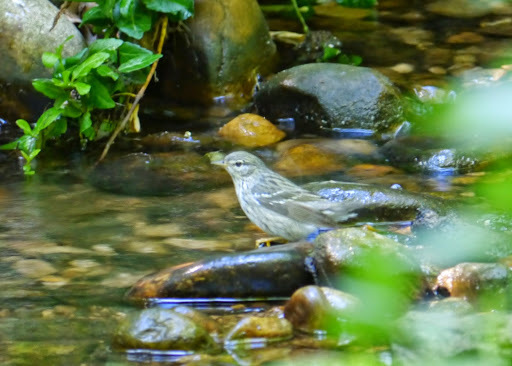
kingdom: Animalia
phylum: Chordata
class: Aves
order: Passeriformes
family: Parulidae
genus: Setophaga
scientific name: Setophaga striata
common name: Blackpoll warbler
